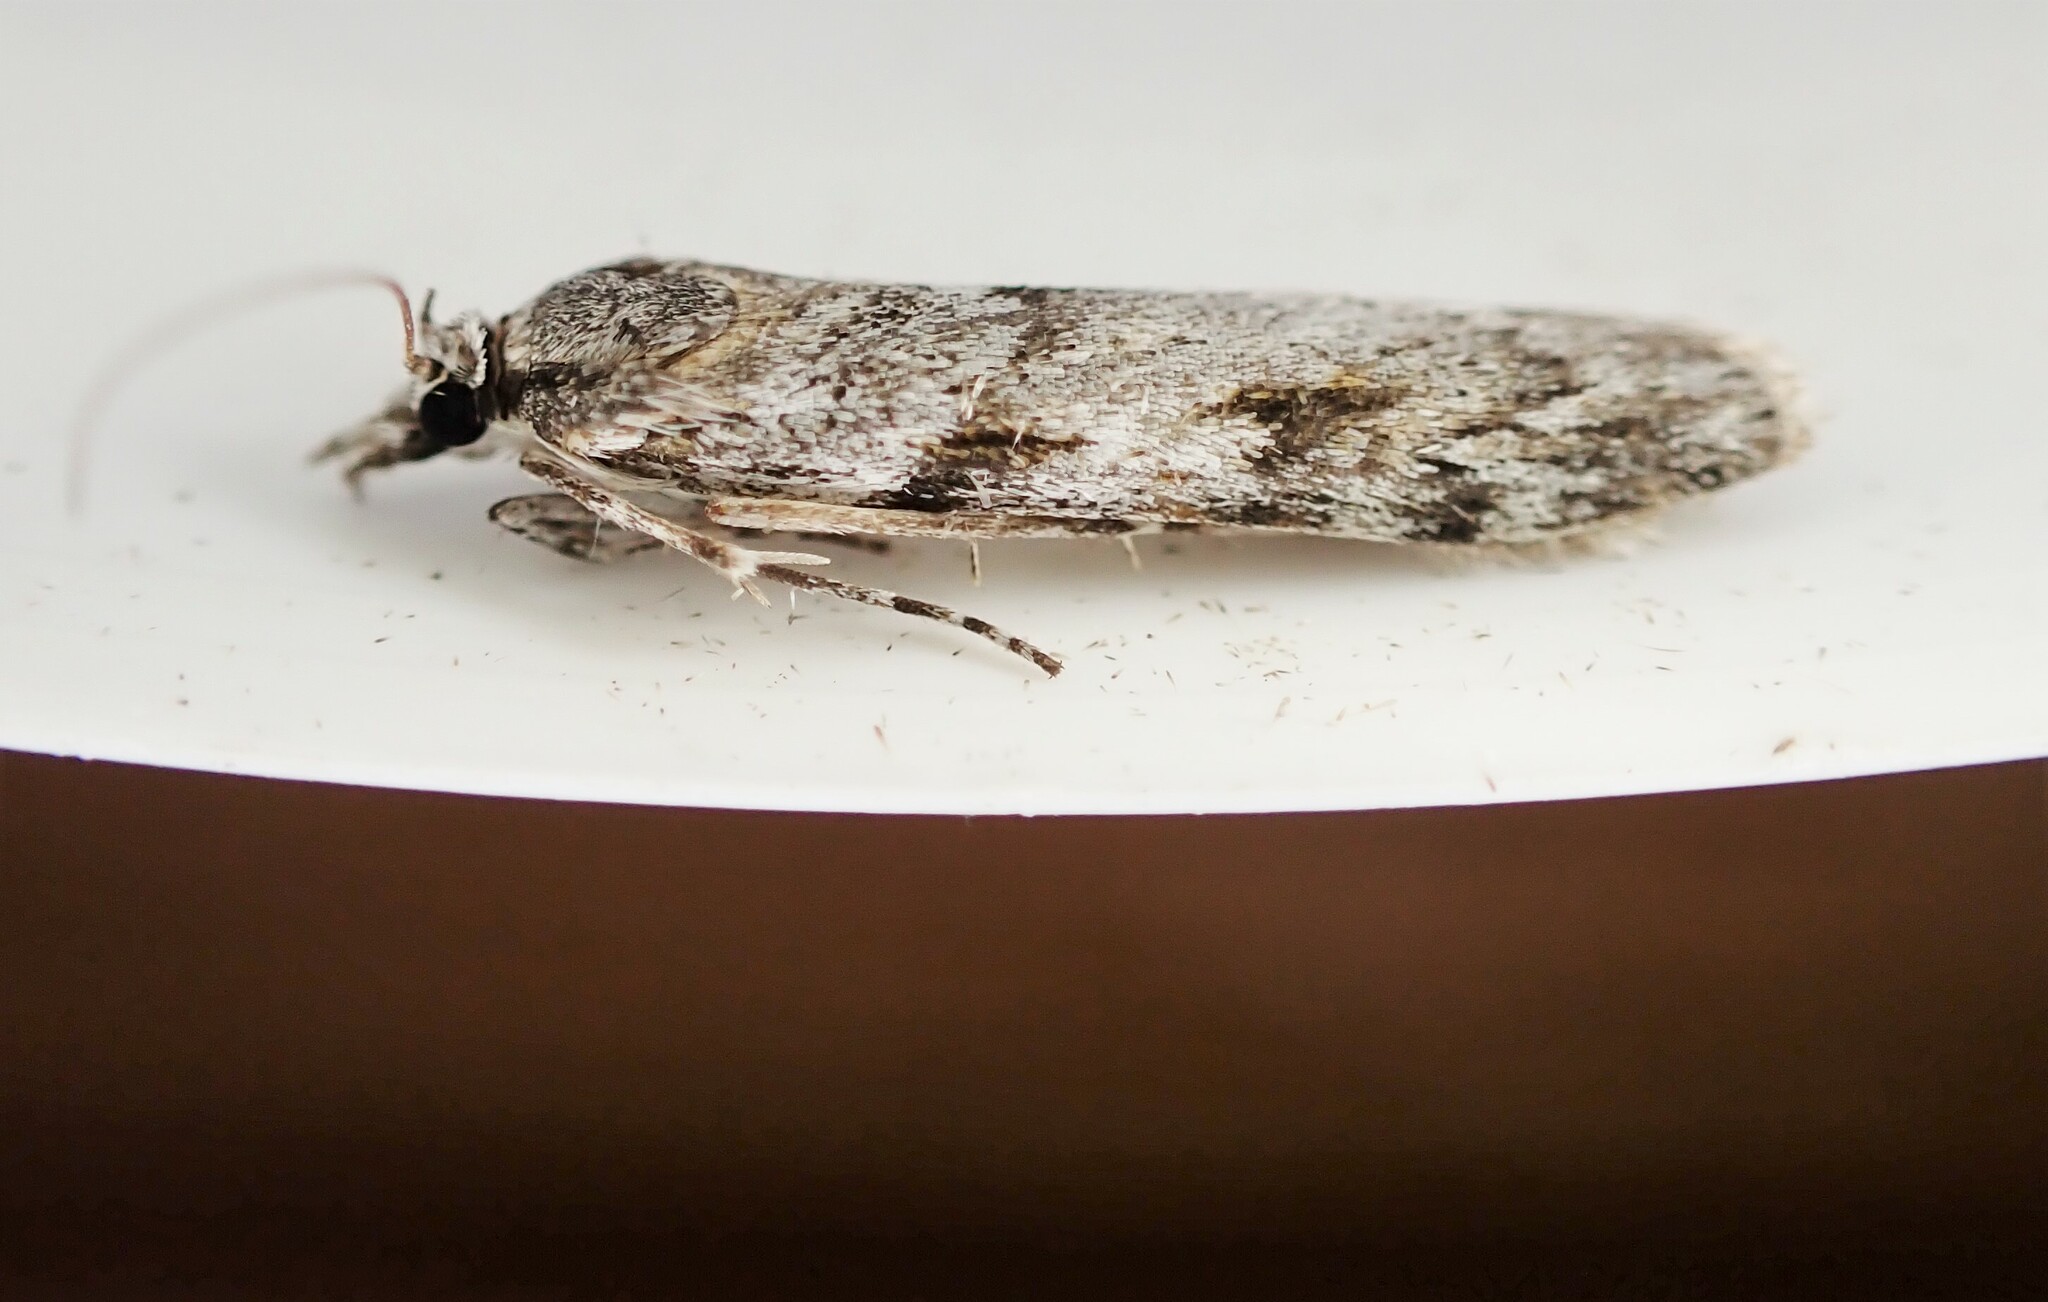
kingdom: Animalia
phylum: Arthropoda
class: Insecta
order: Lepidoptera
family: Crambidae
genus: Scoparia
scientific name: Scoparia halopis
